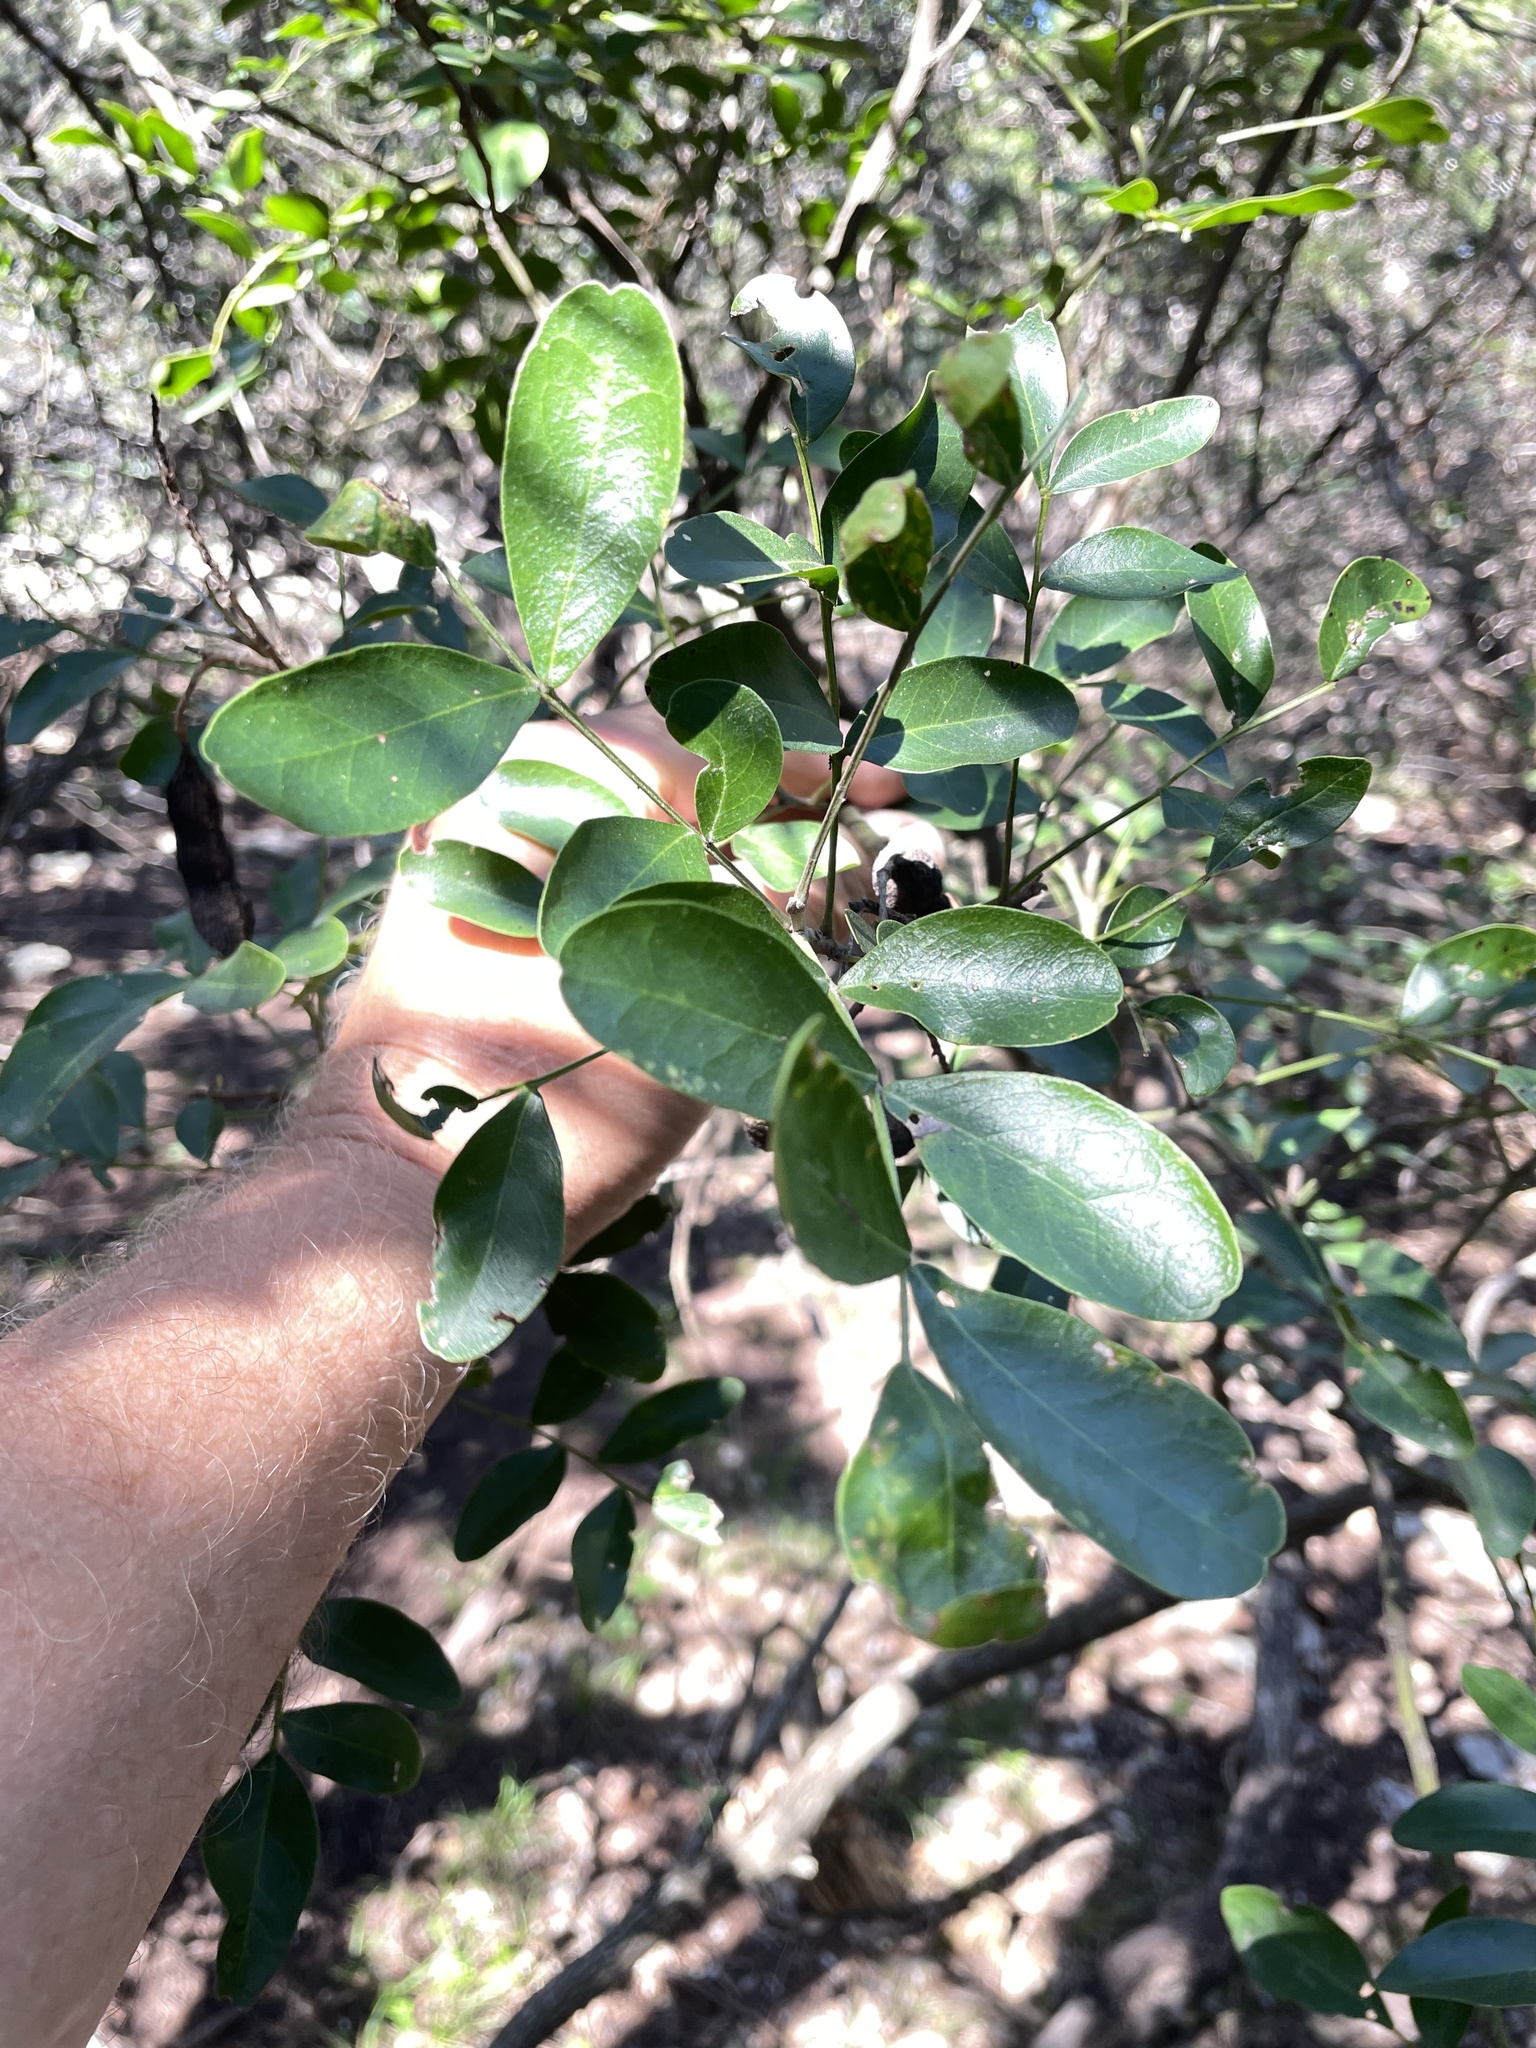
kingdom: Plantae
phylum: Tracheophyta
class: Magnoliopsida
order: Fabales
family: Fabaceae
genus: Dermatophyllum
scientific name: Dermatophyllum secundiflorum
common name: Texas-mountain-laurel
